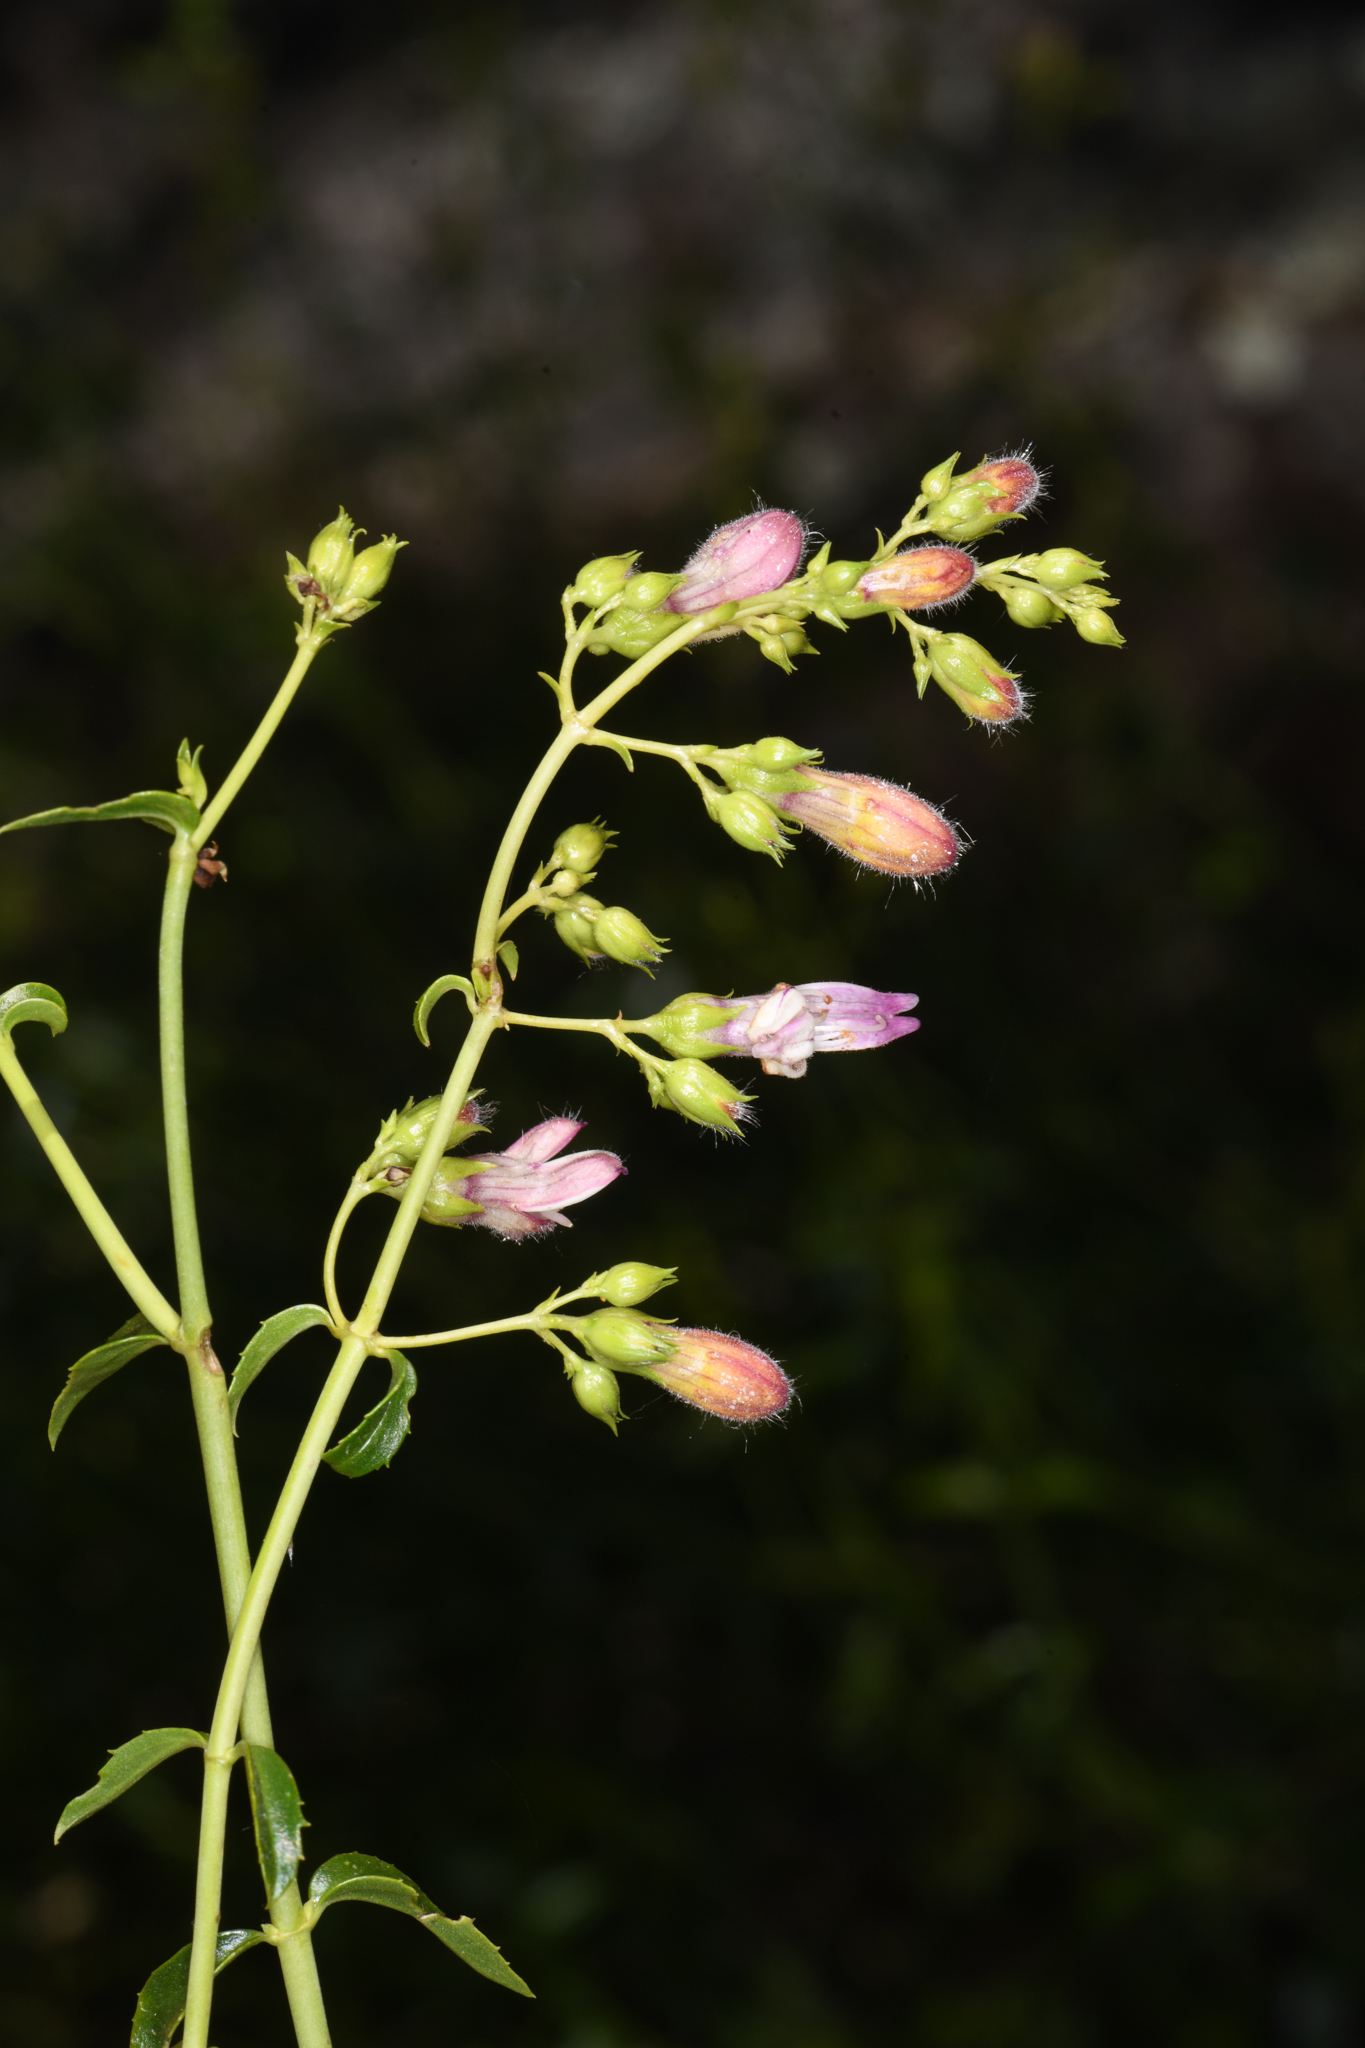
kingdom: Plantae
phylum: Tracheophyta
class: Magnoliopsida
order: Lamiales
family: Plantaginaceae
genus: Keckiella
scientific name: Keckiella breviflora
